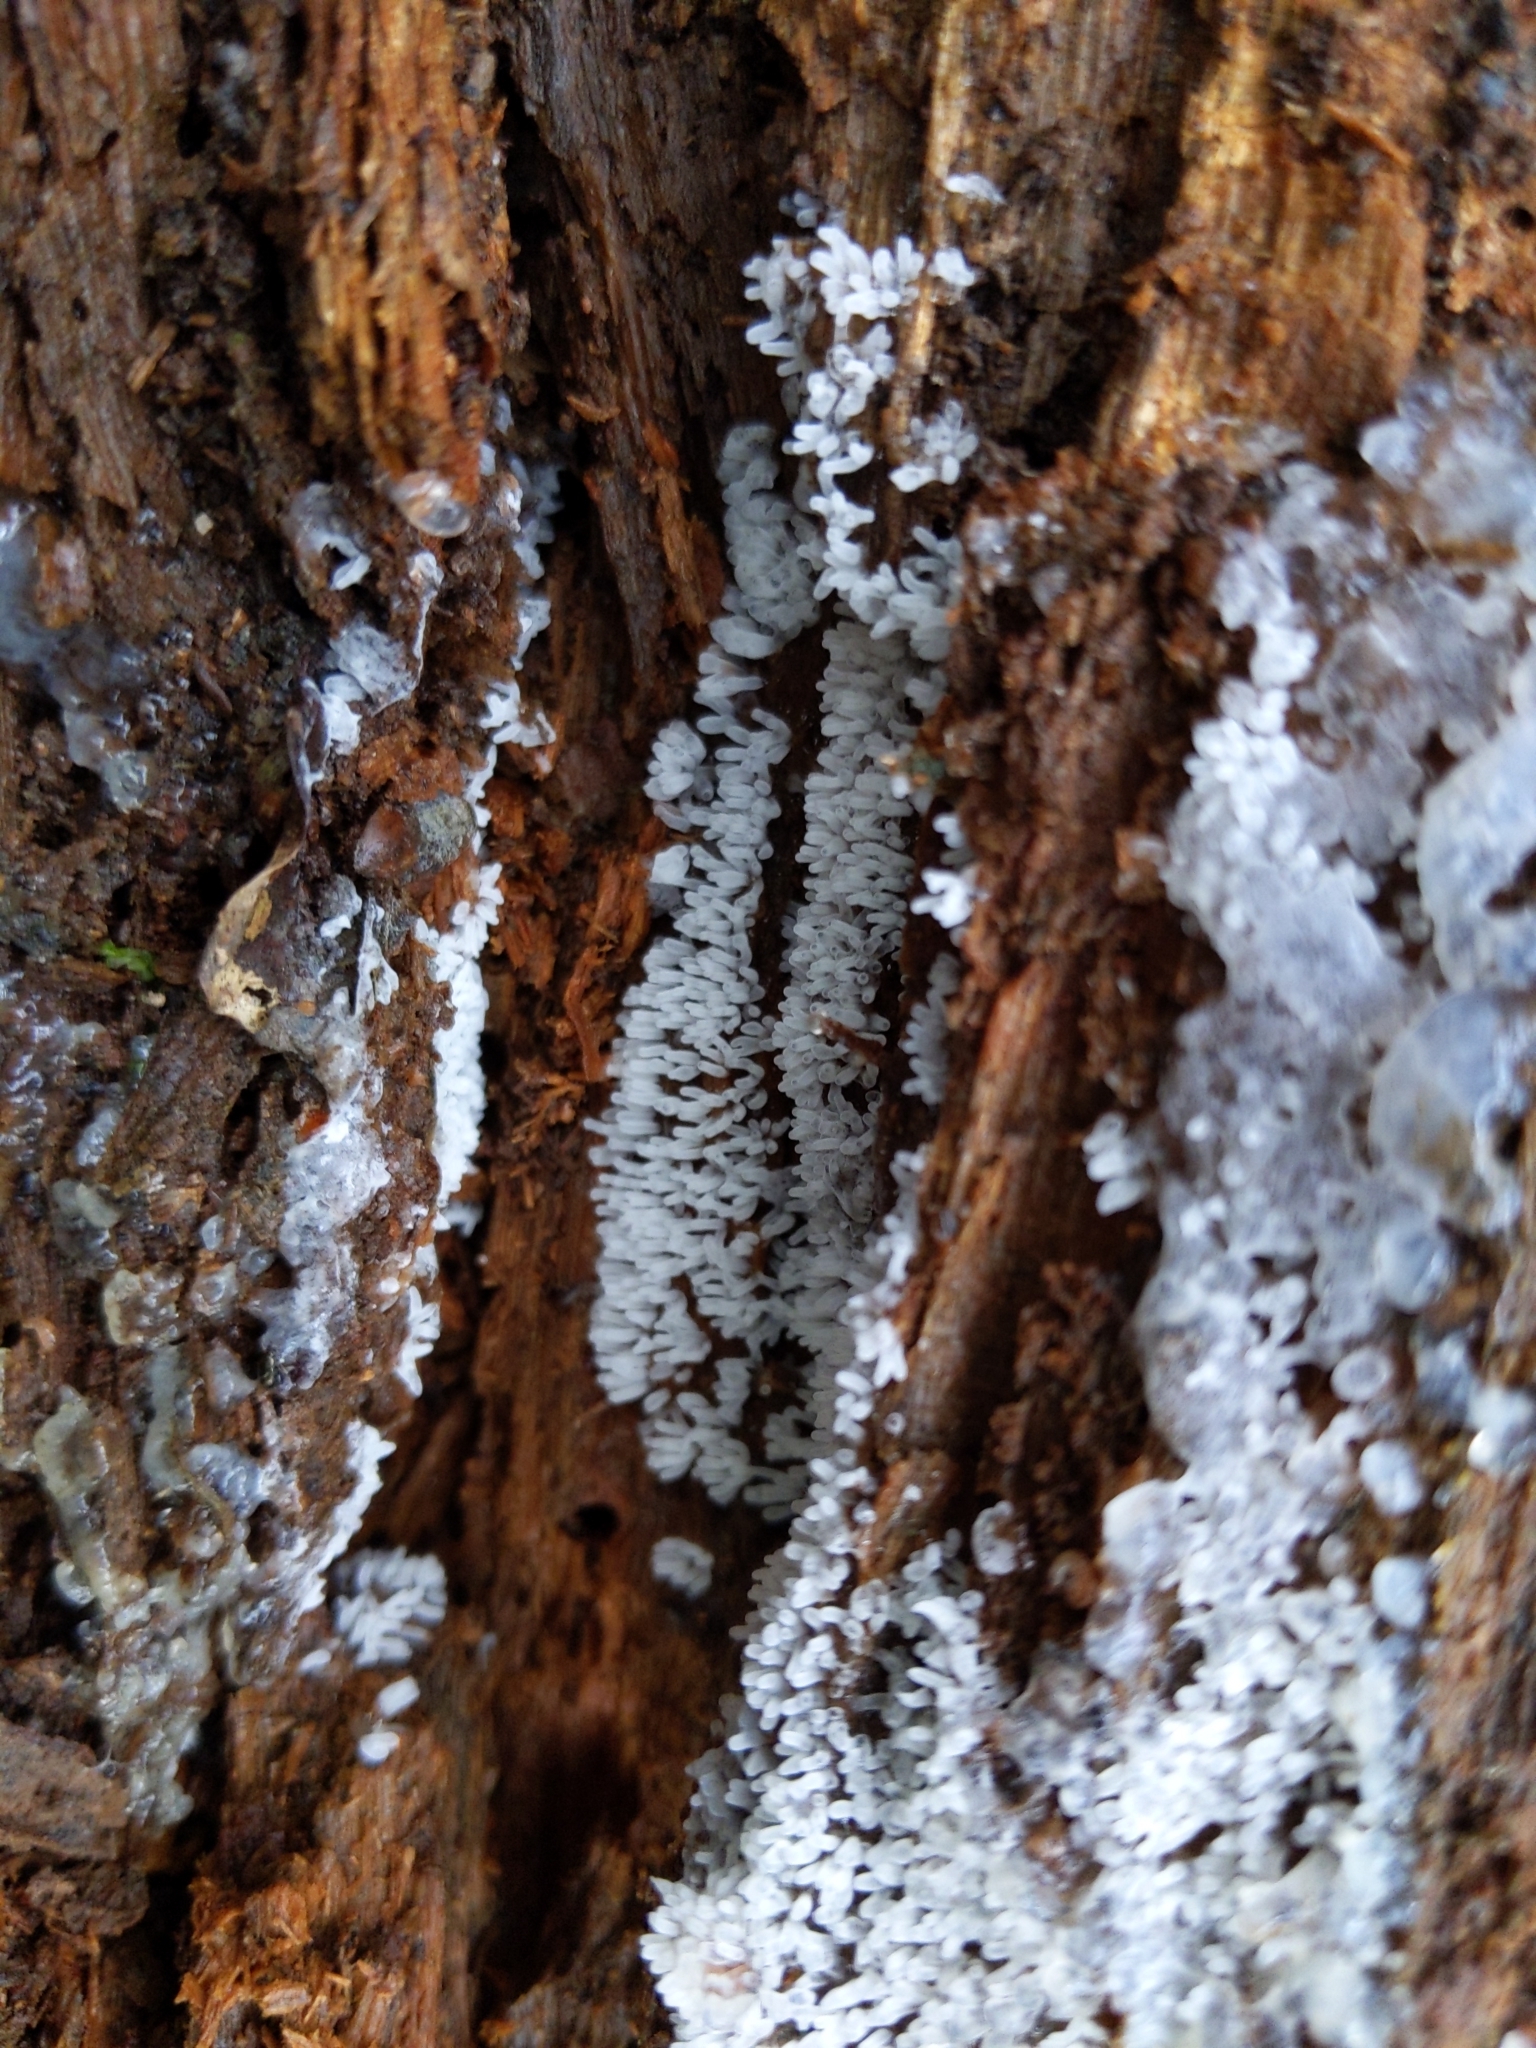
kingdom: Protozoa
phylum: Mycetozoa
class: Protosteliomycetes
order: Ceratiomyxales
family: Ceratiomyxaceae
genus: Ceratiomyxa
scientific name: Ceratiomyxa fruticulosa
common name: Honeycomb coral slime mold
